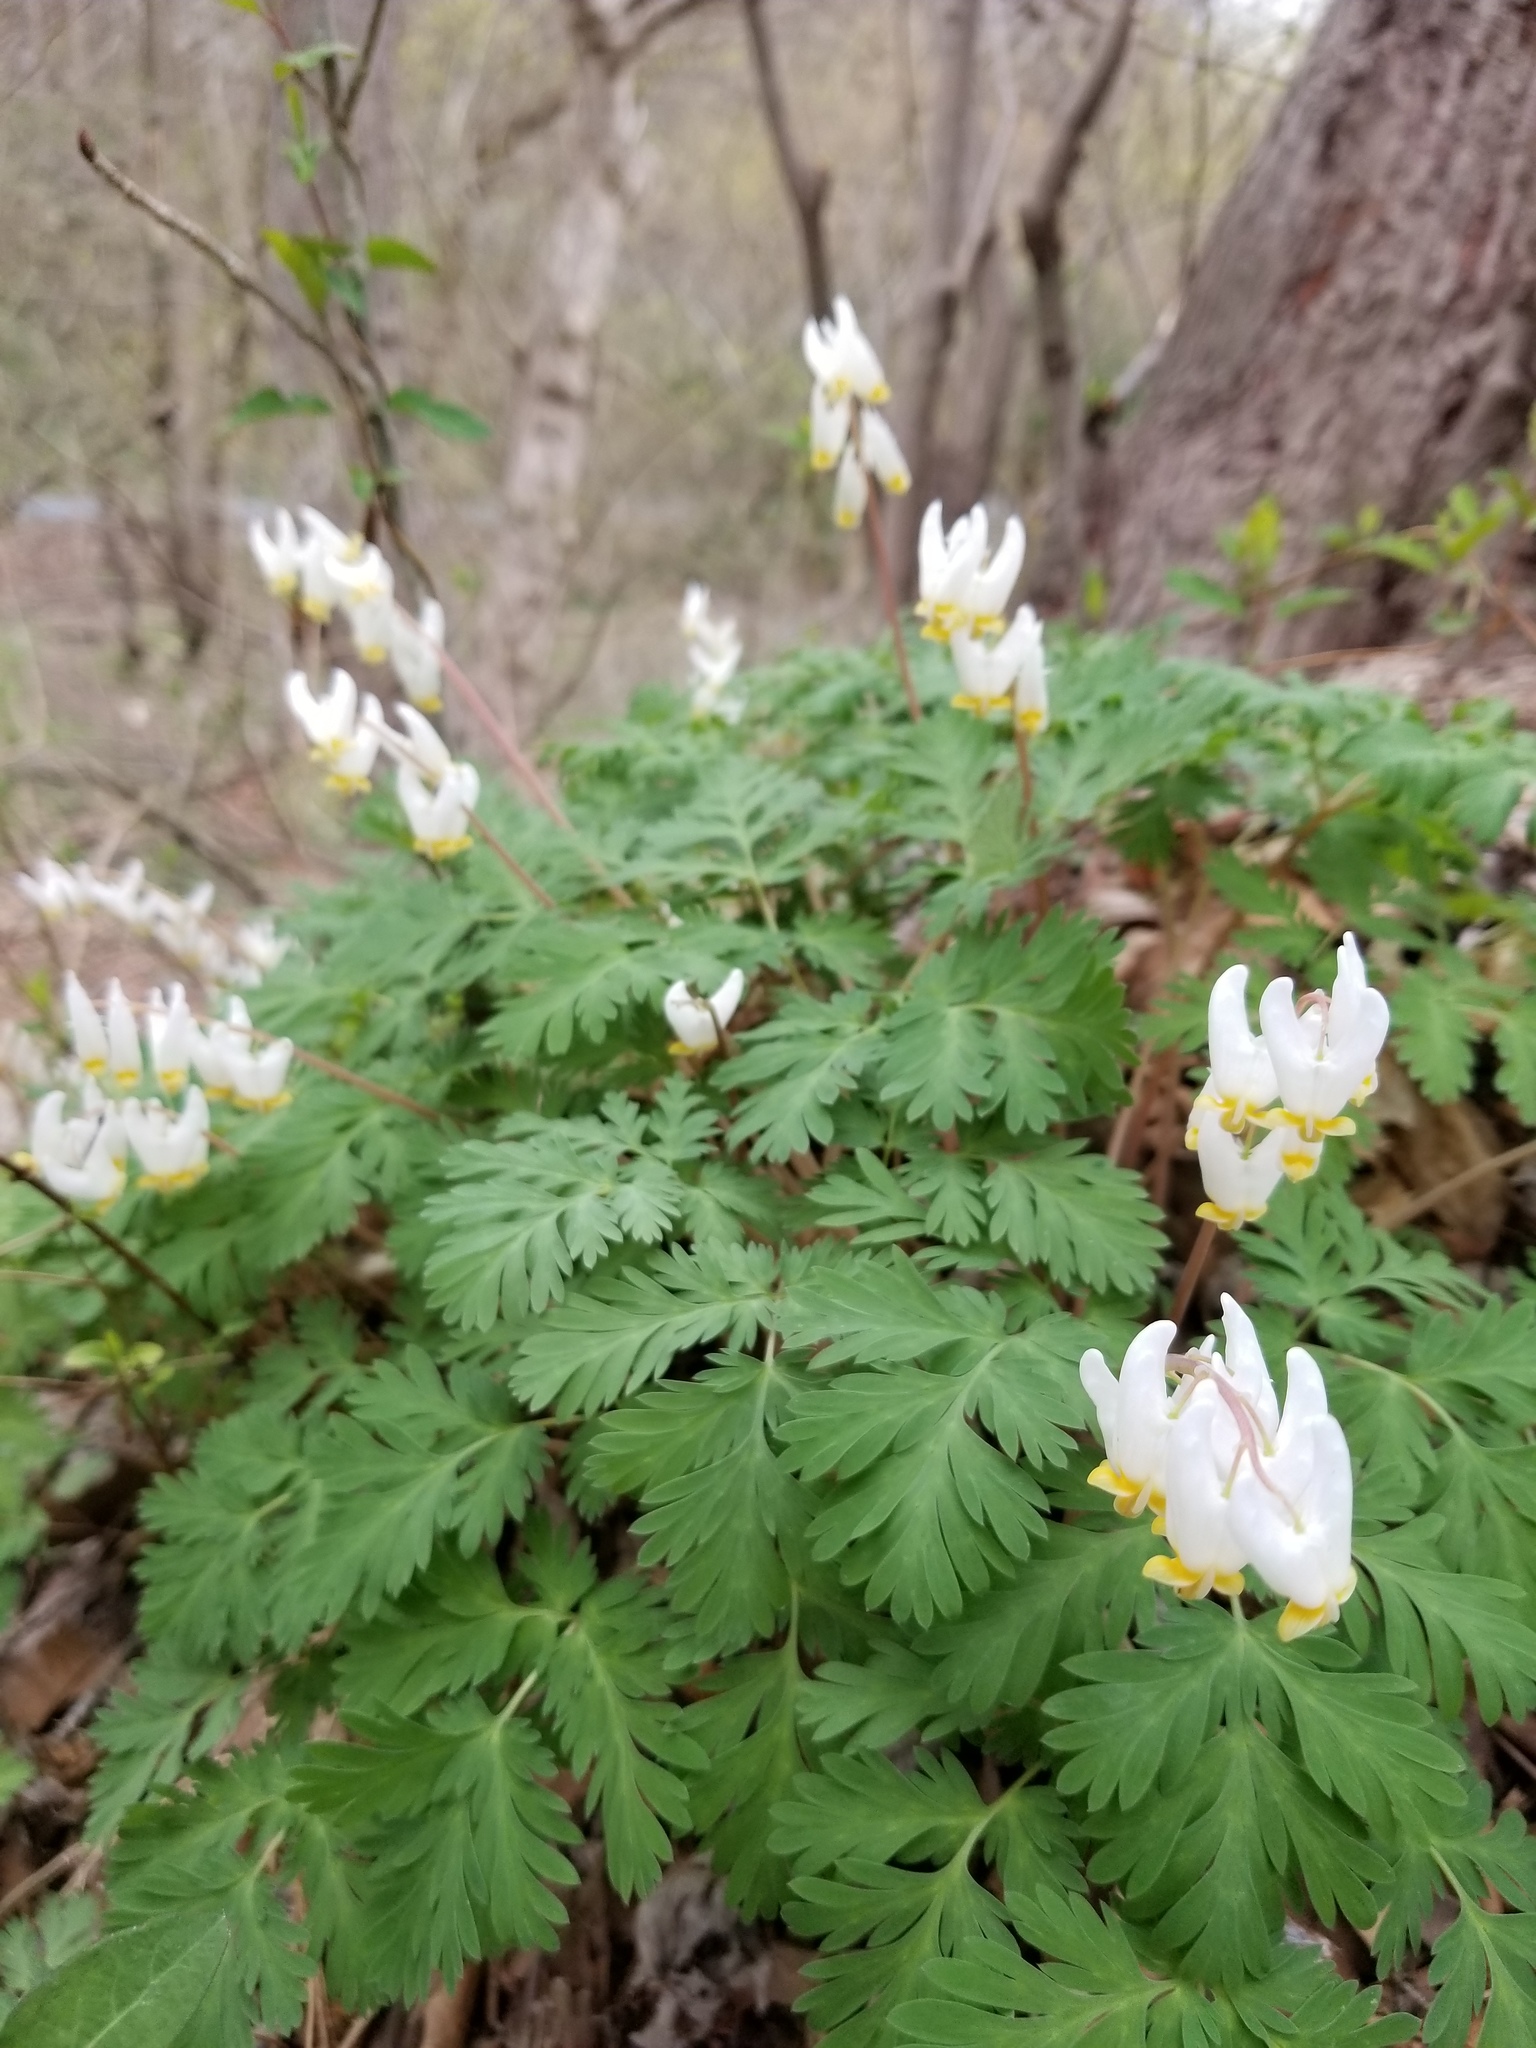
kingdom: Plantae
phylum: Tracheophyta
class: Magnoliopsida
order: Ranunculales
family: Papaveraceae
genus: Dicentra
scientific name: Dicentra cucullaria
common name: Dutchman's breeches
